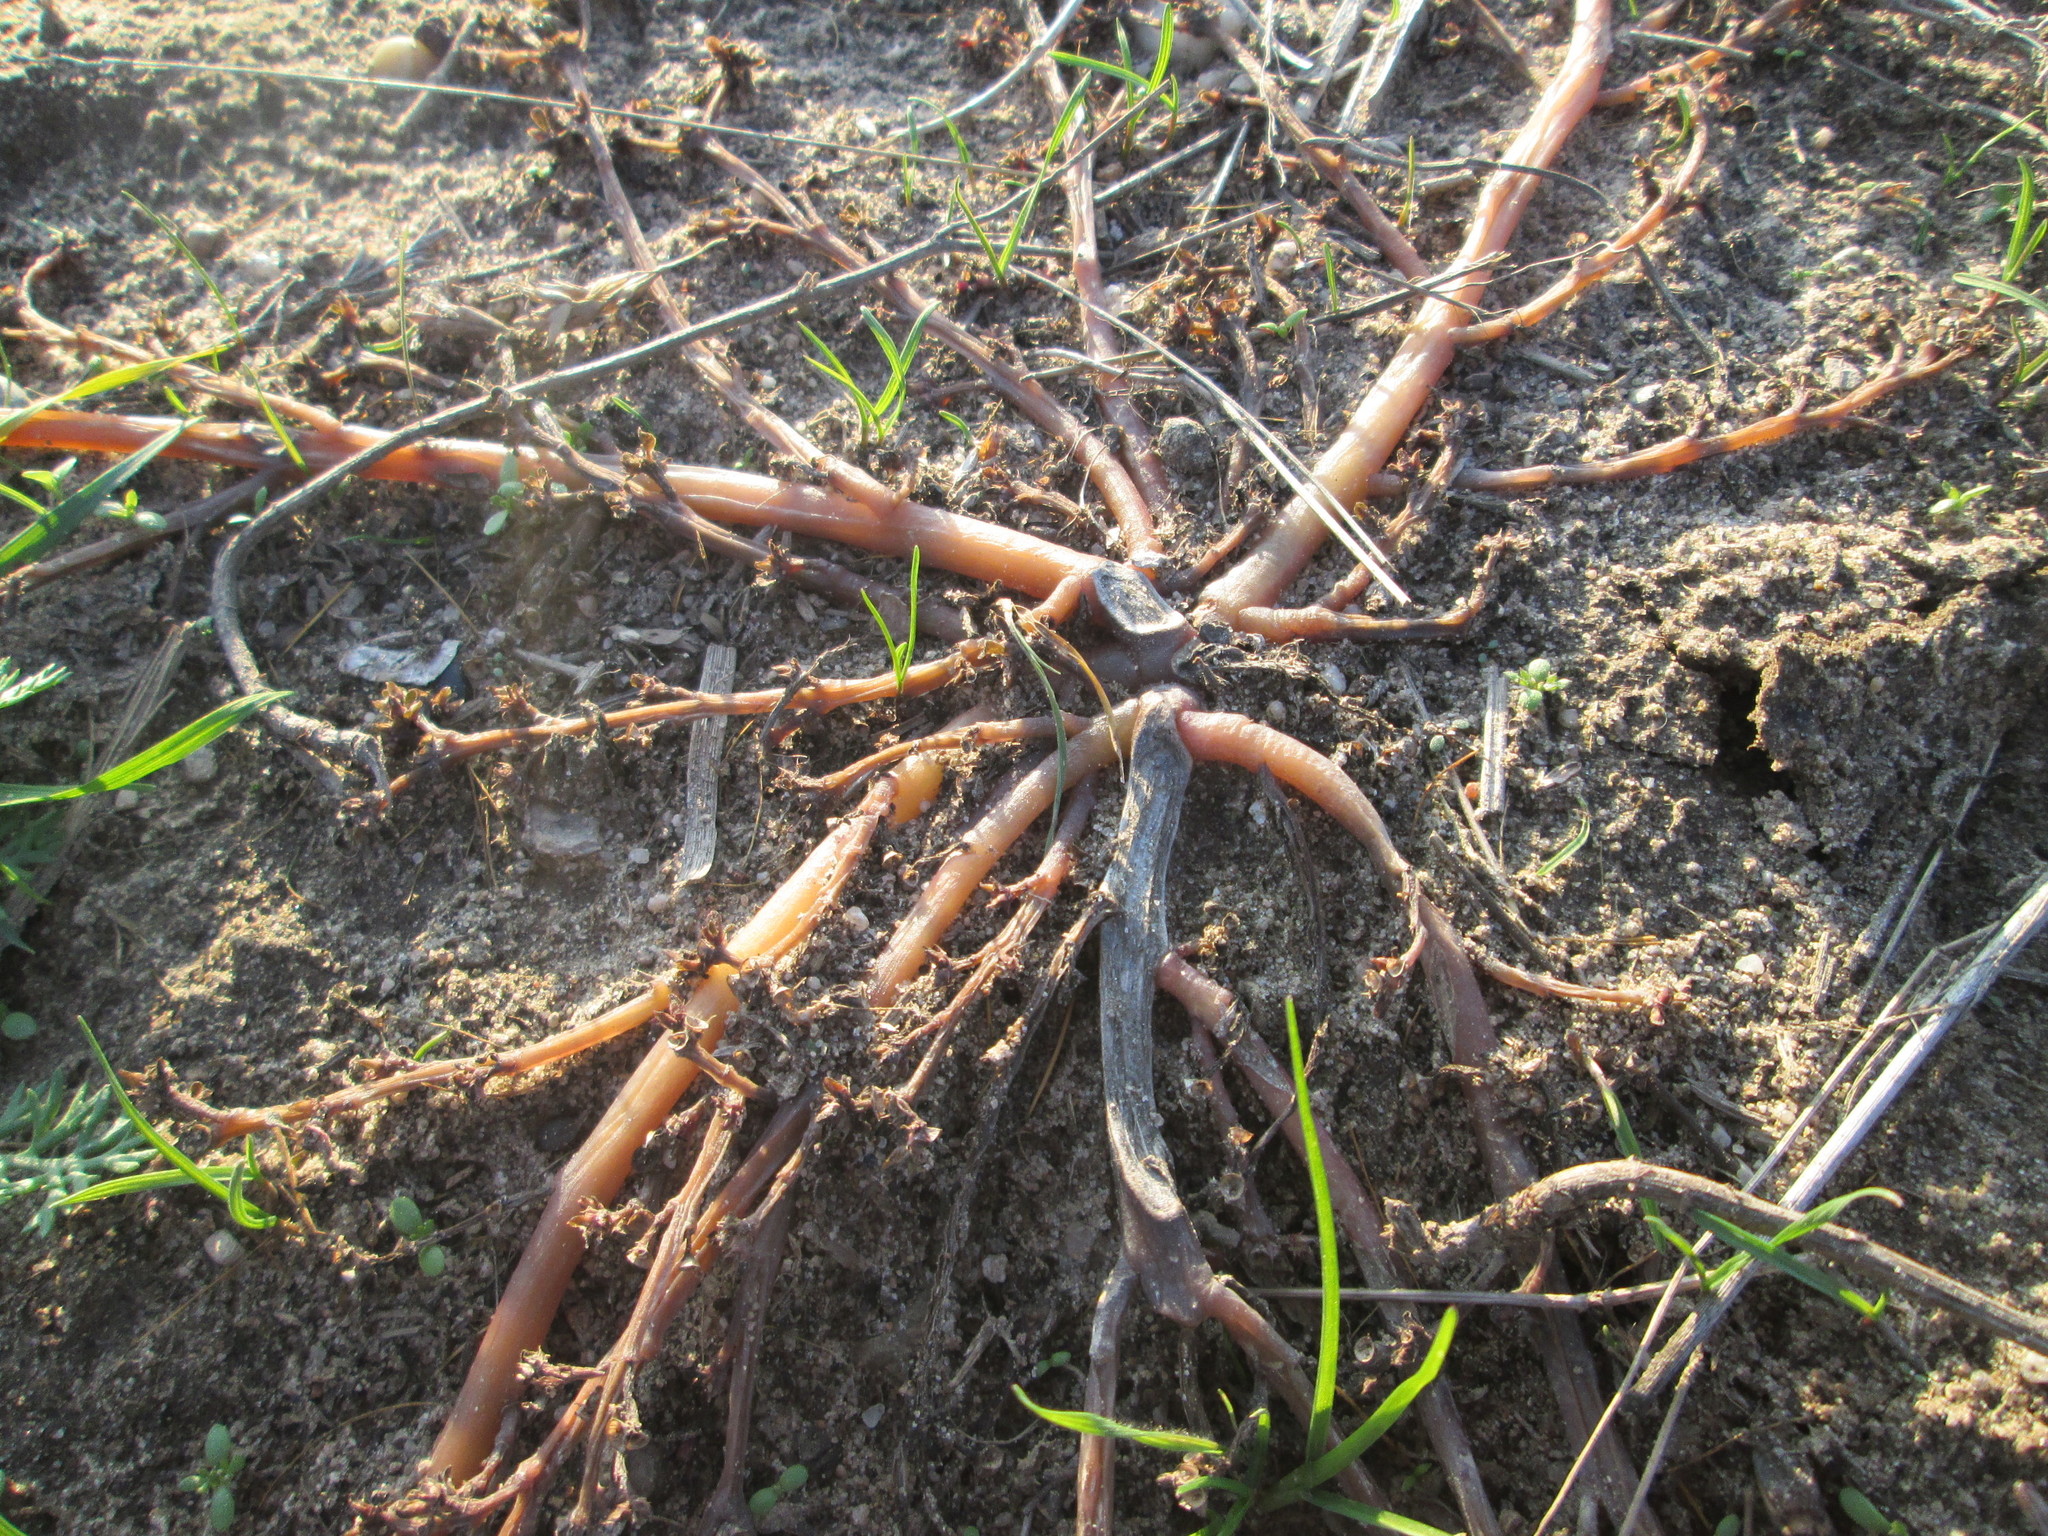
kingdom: Plantae
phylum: Tracheophyta
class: Magnoliopsida
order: Caryophyllales
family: Portulacaceae
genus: Portulaca
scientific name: Portulaca oleracea
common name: Common purslane
